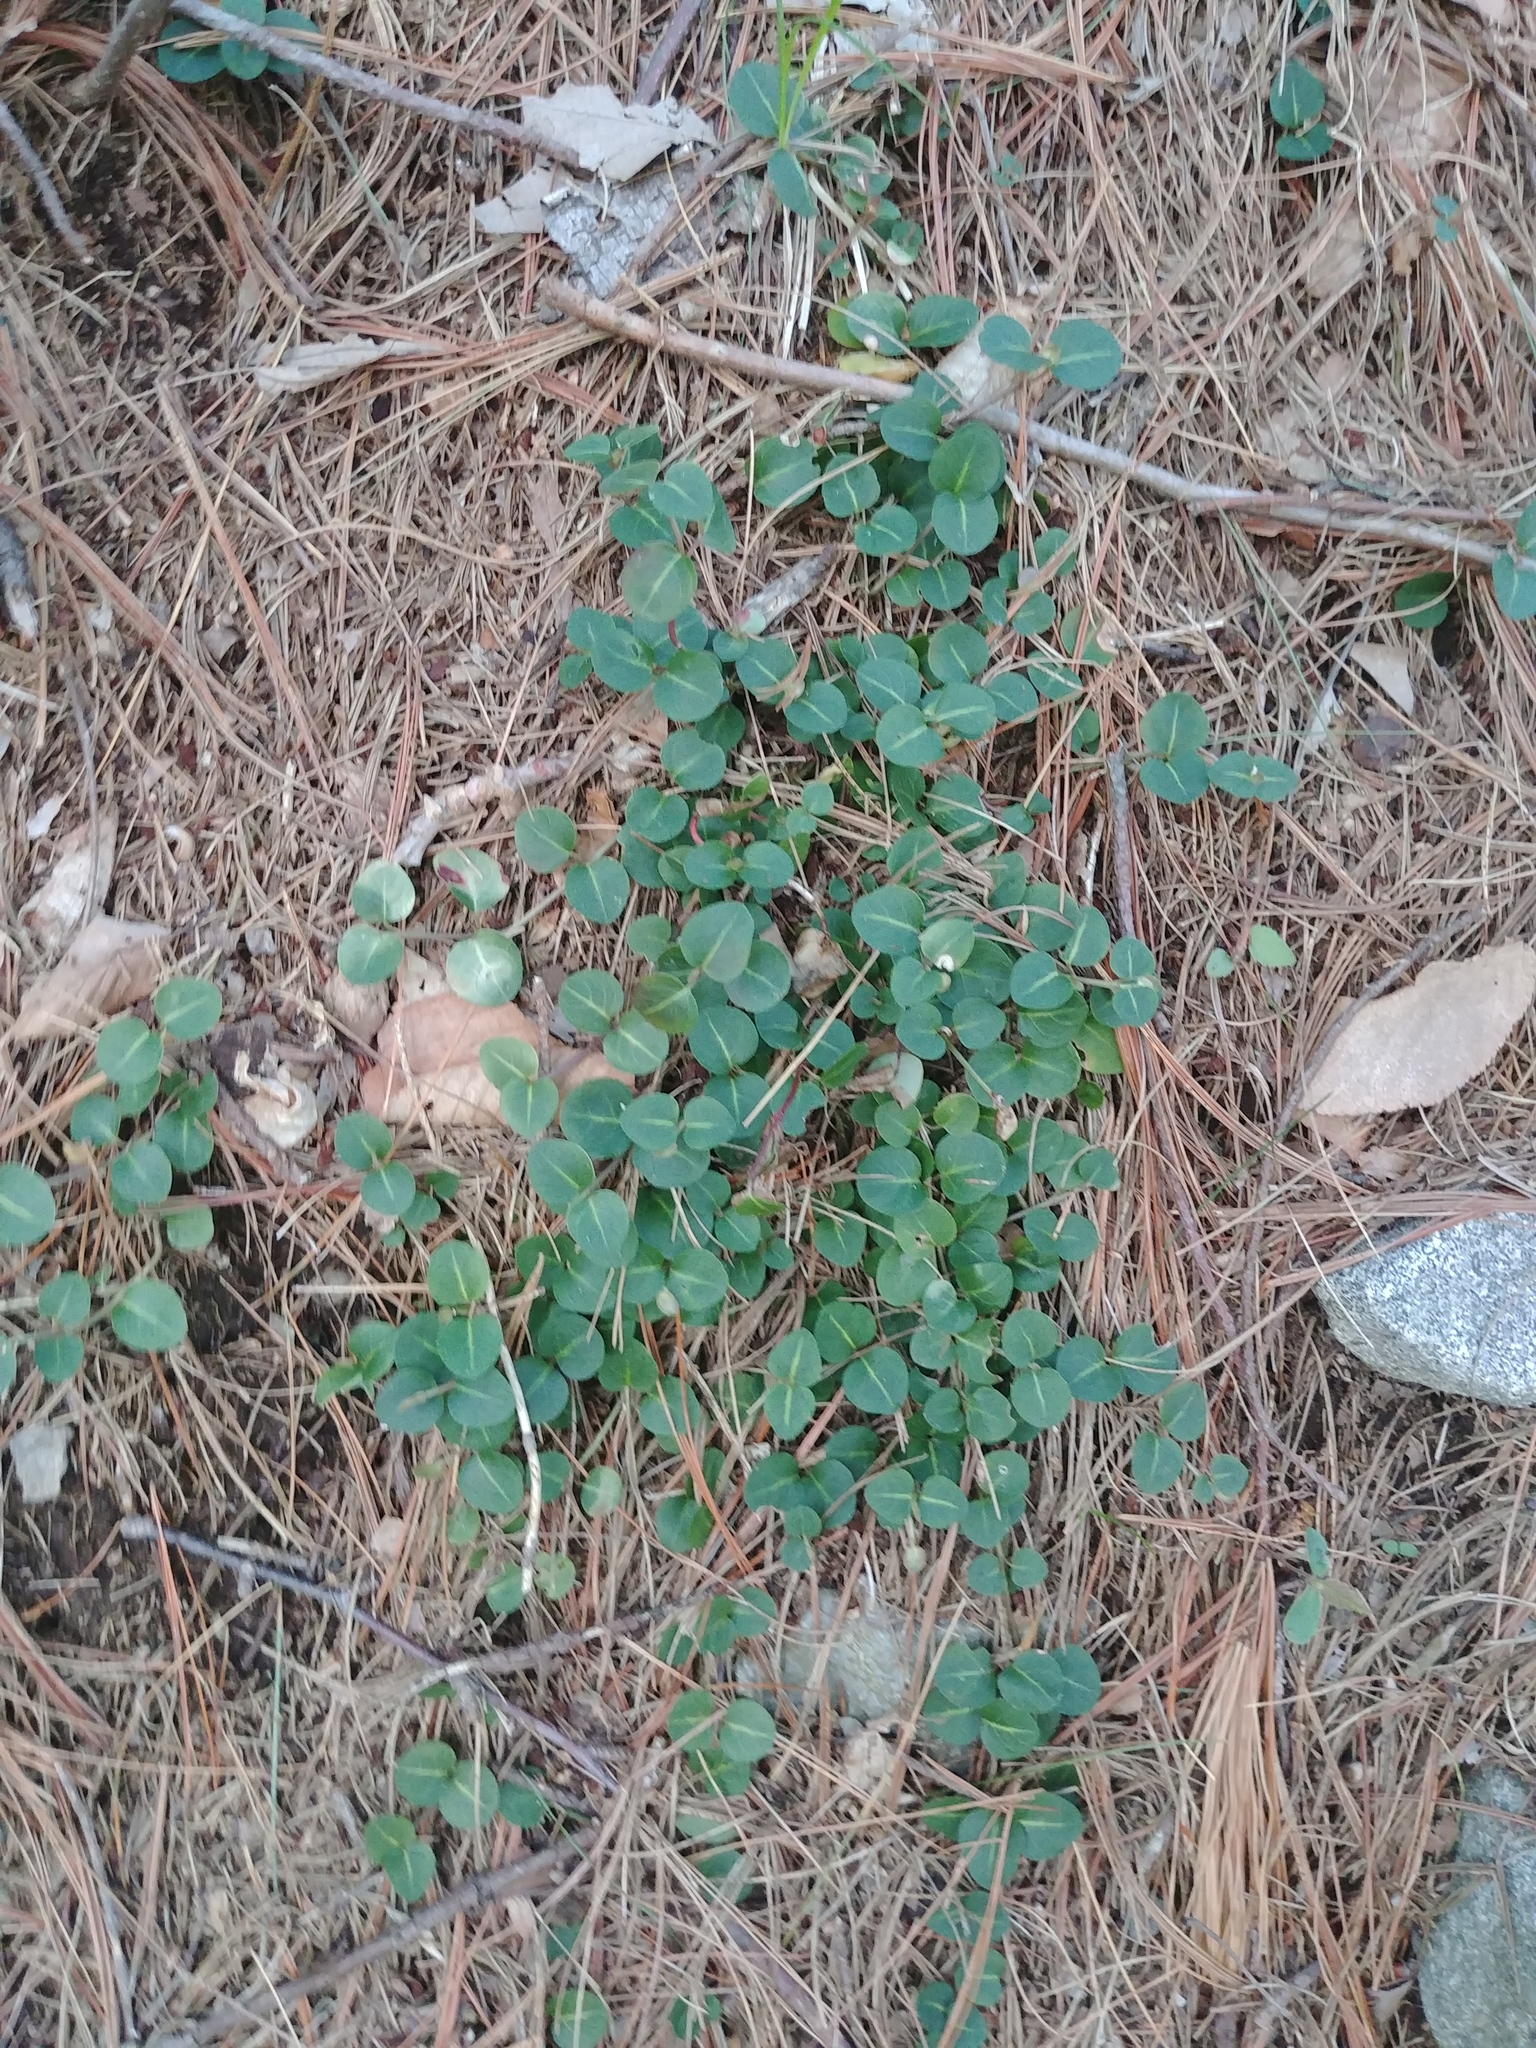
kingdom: Plantae
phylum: Tracheophyta
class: Magnoliopsida
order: Gentianales
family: Rubiaceae
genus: Mitchella
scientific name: Mitchella repens
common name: Partridge-berry
